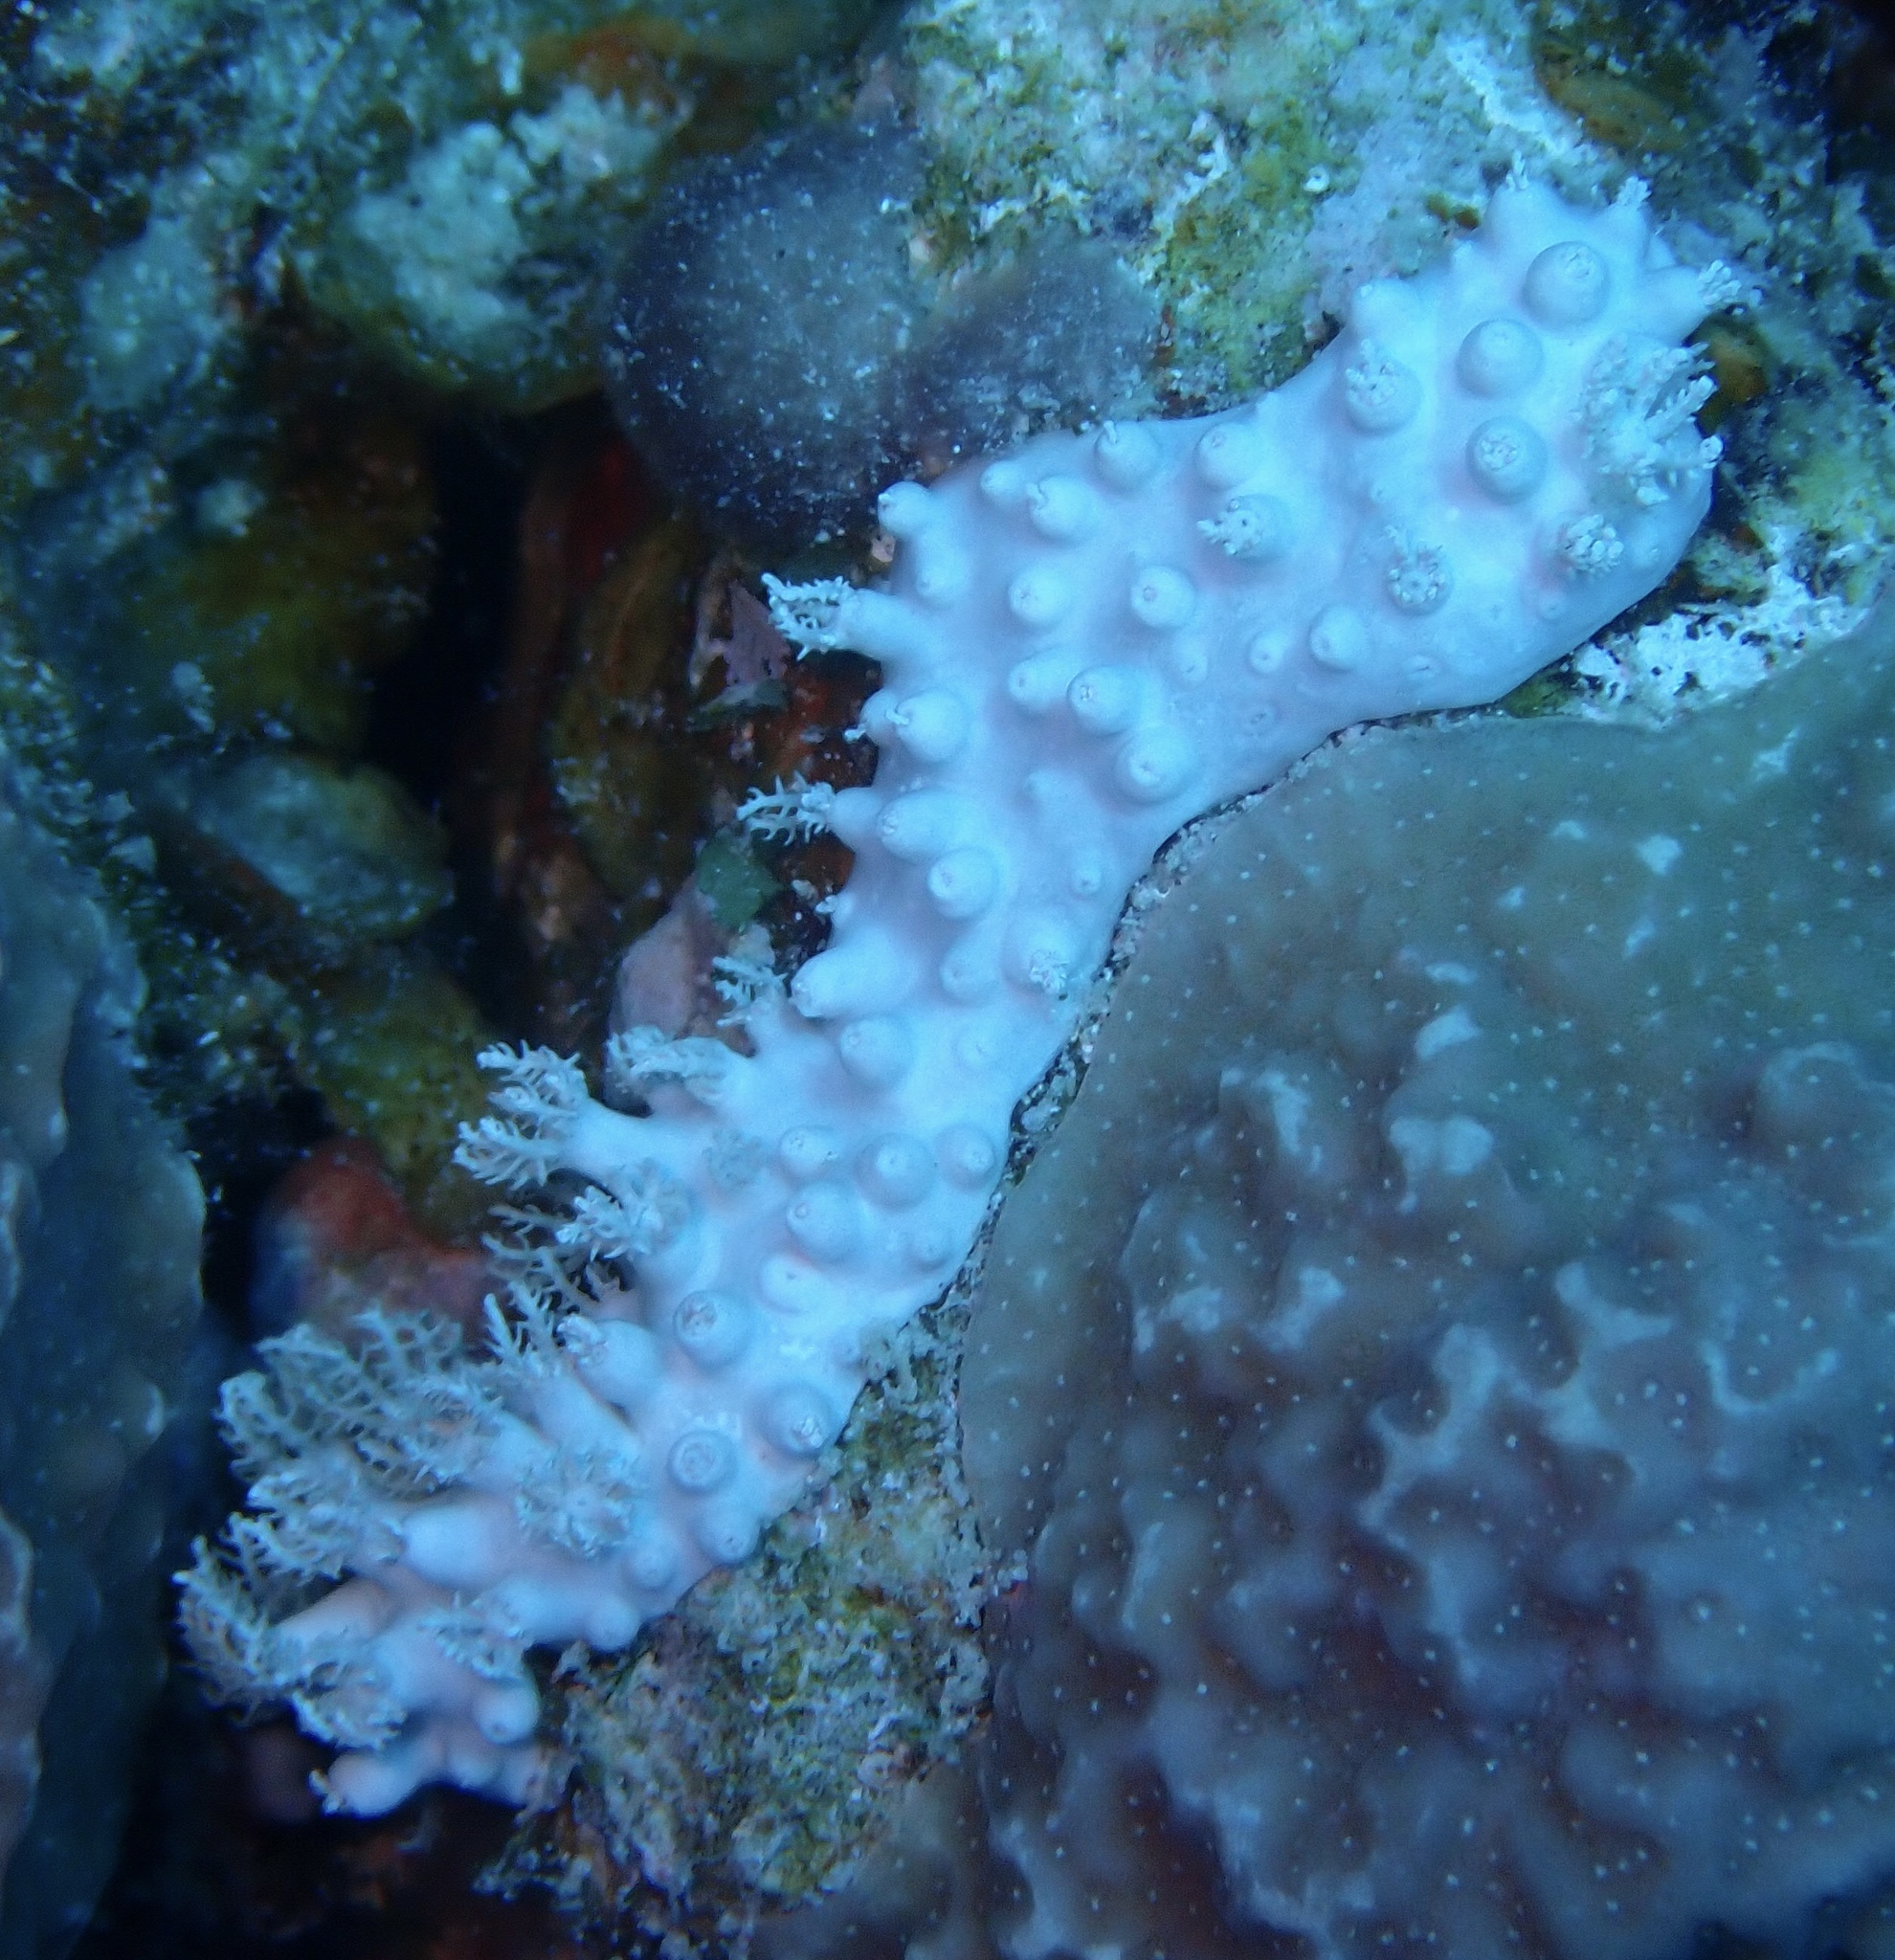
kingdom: Animalia
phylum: Cnidaria
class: Anthozoa
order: Malacalcyonacea
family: Xeniidae
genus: Anthelia
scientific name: Anthelia glauca
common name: Pulse coral
